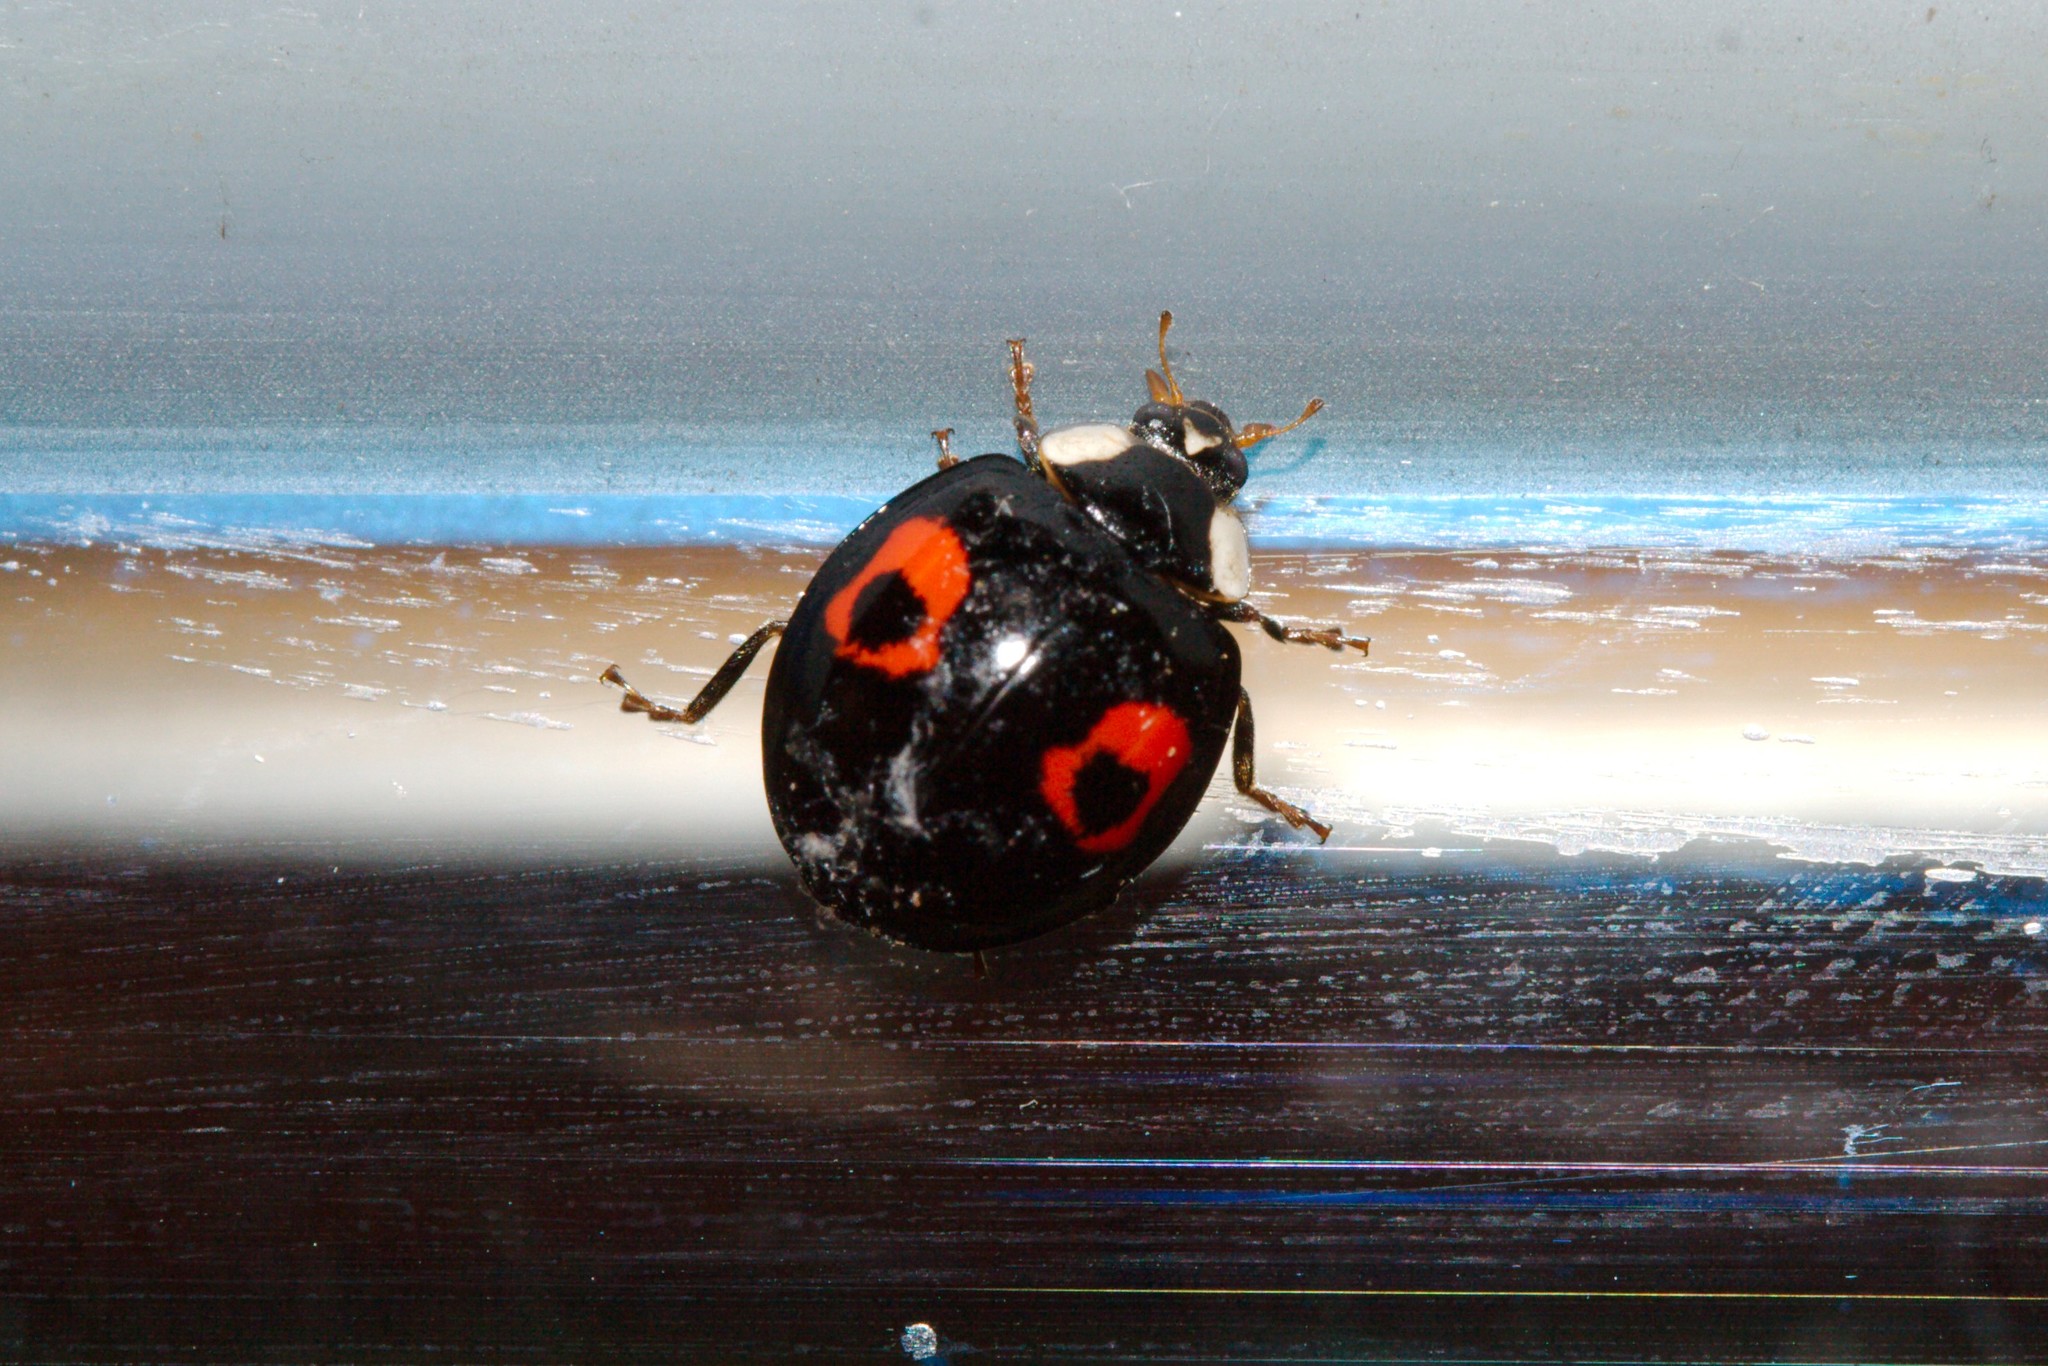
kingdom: Animalia
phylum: Arthropoda
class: Insecta
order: Coleoptera
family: Coccinellidae
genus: Harmonia
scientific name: Harmonia axyridis
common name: Harlequin ladybird
